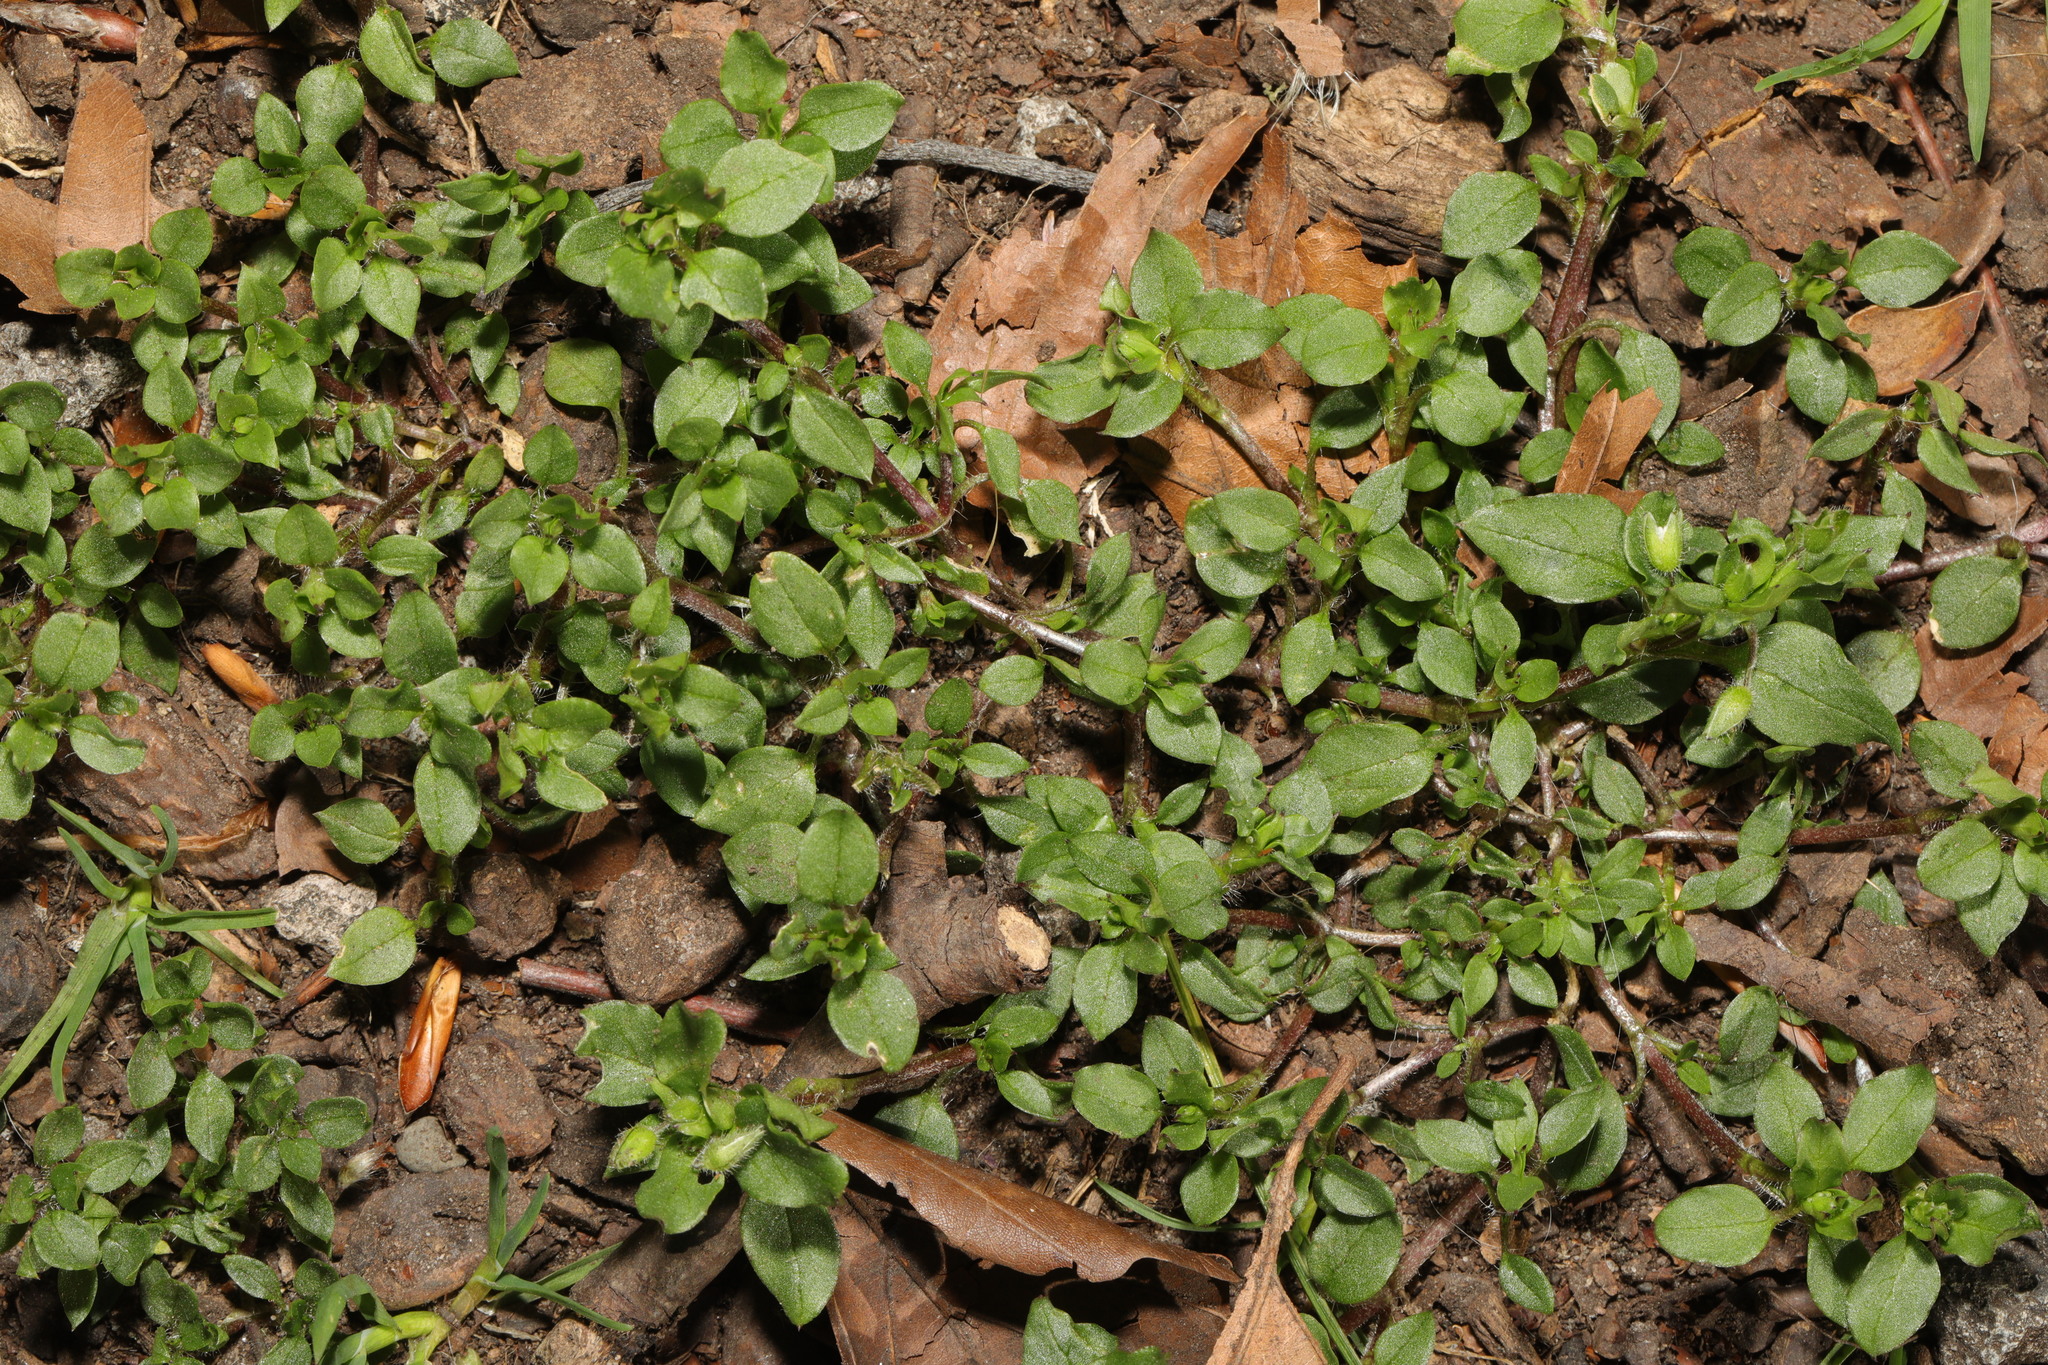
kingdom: Plantae
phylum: Tracheophyta
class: Magnoliopsida
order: Caryophyllales
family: Caryophyllaceae
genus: Stellaria
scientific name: Stellaria media
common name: Common chickweed
